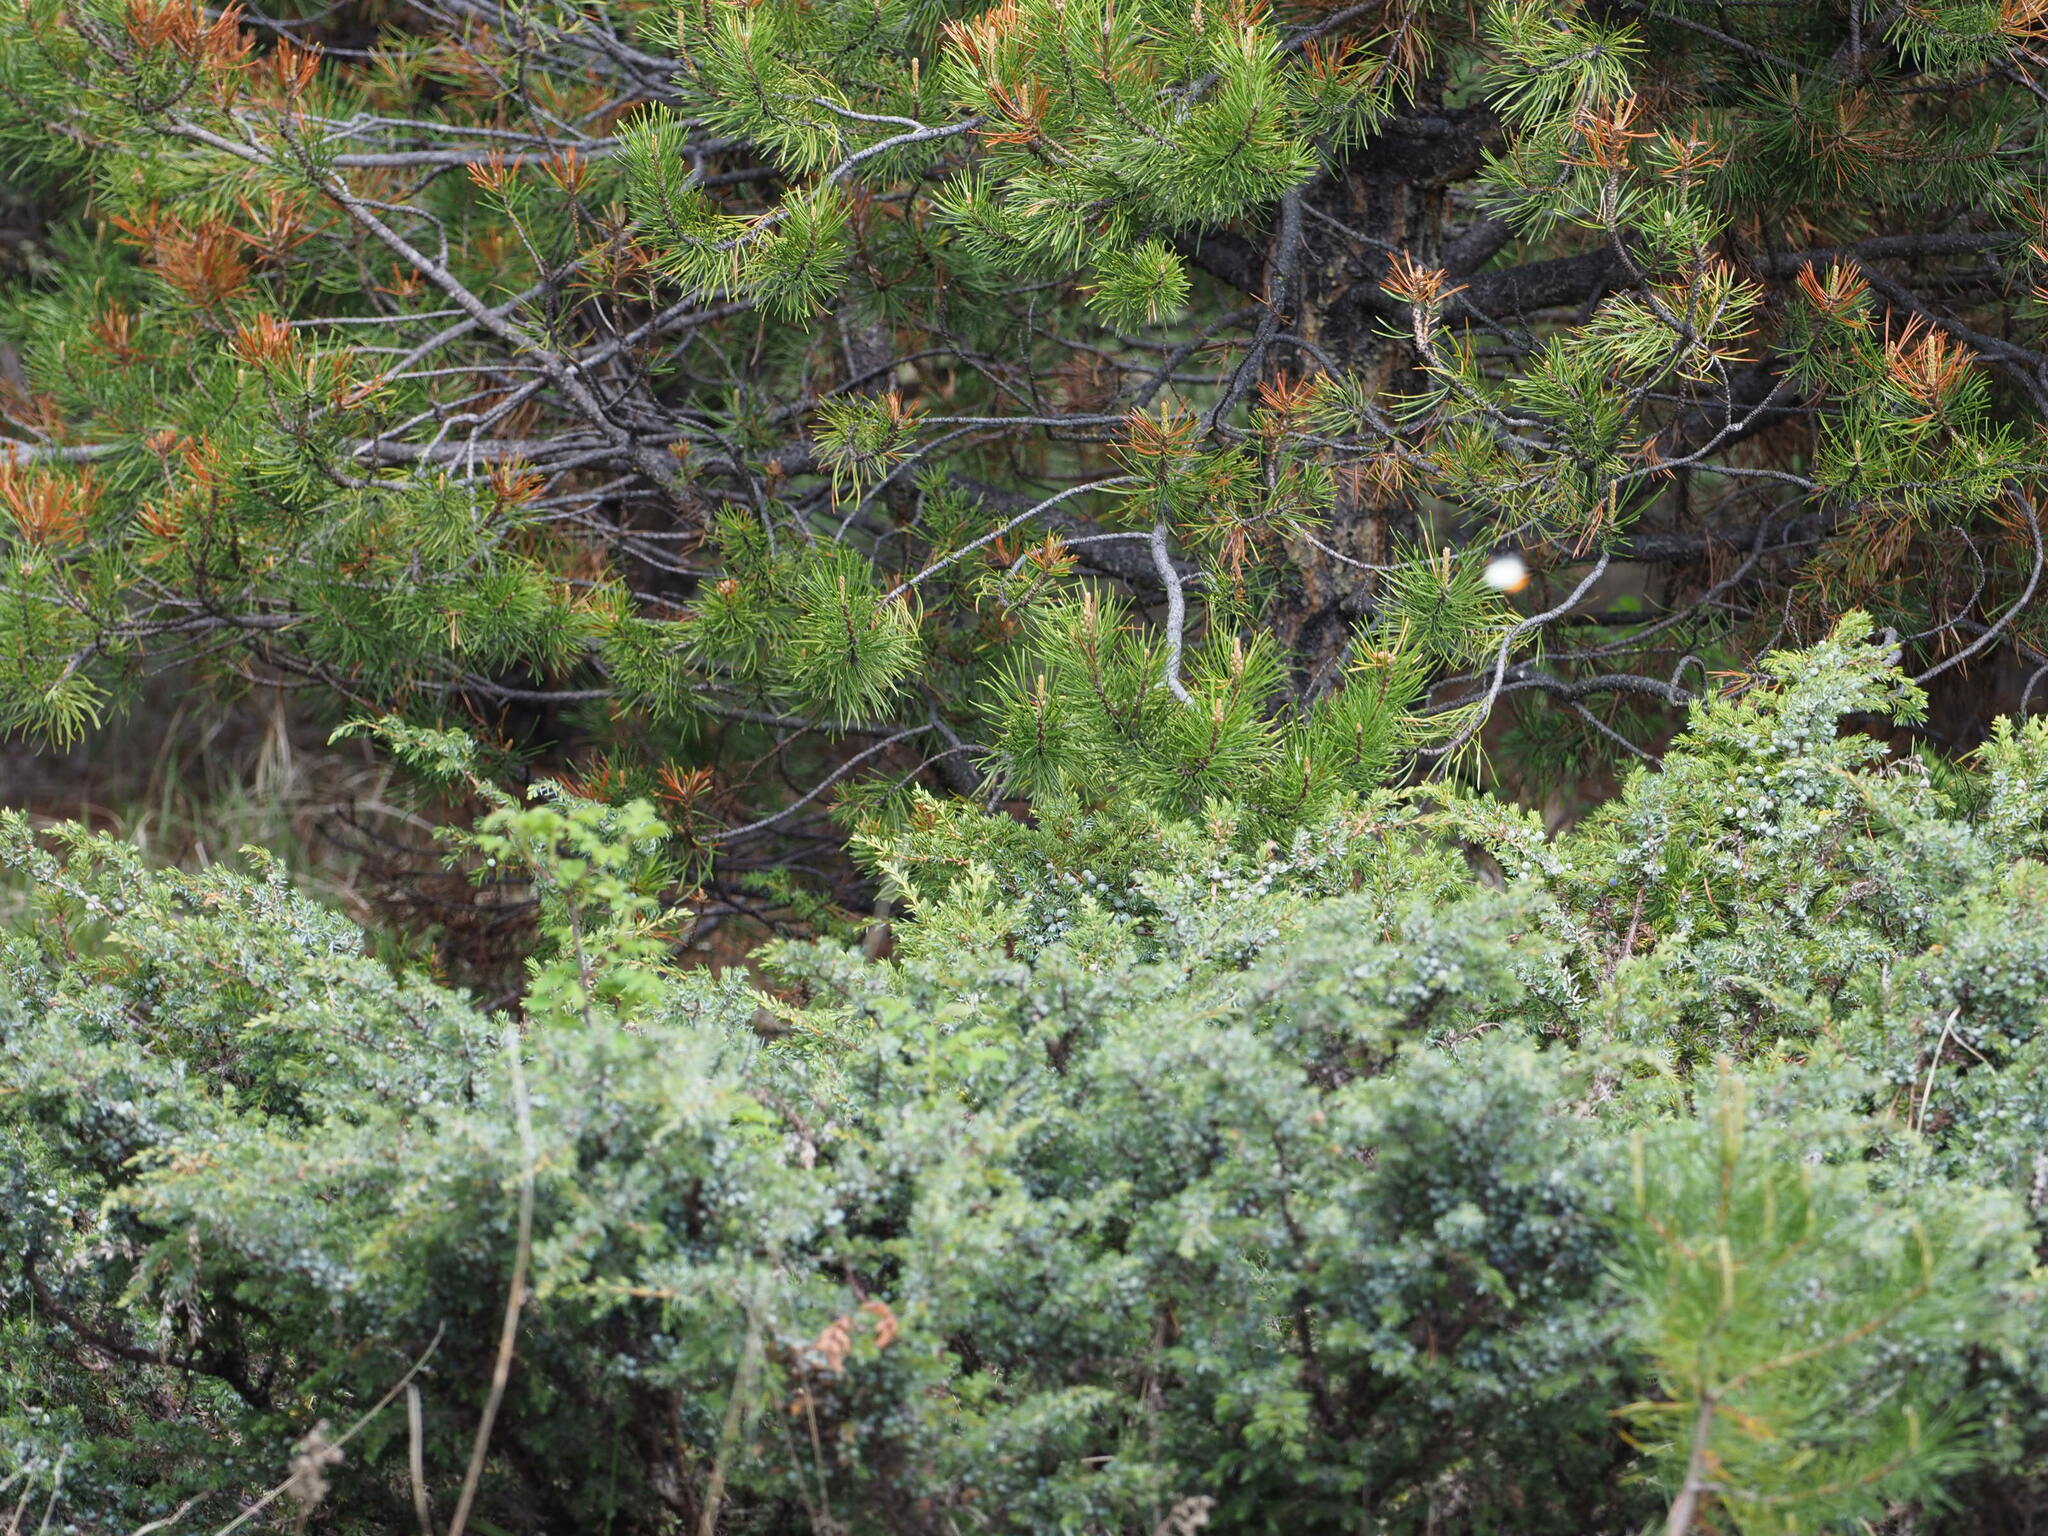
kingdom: Animalia
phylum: Arthropoda
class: Insecta
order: Lepidoptera
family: Pieridae
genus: Anthocharis
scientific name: Anthocharis julia
